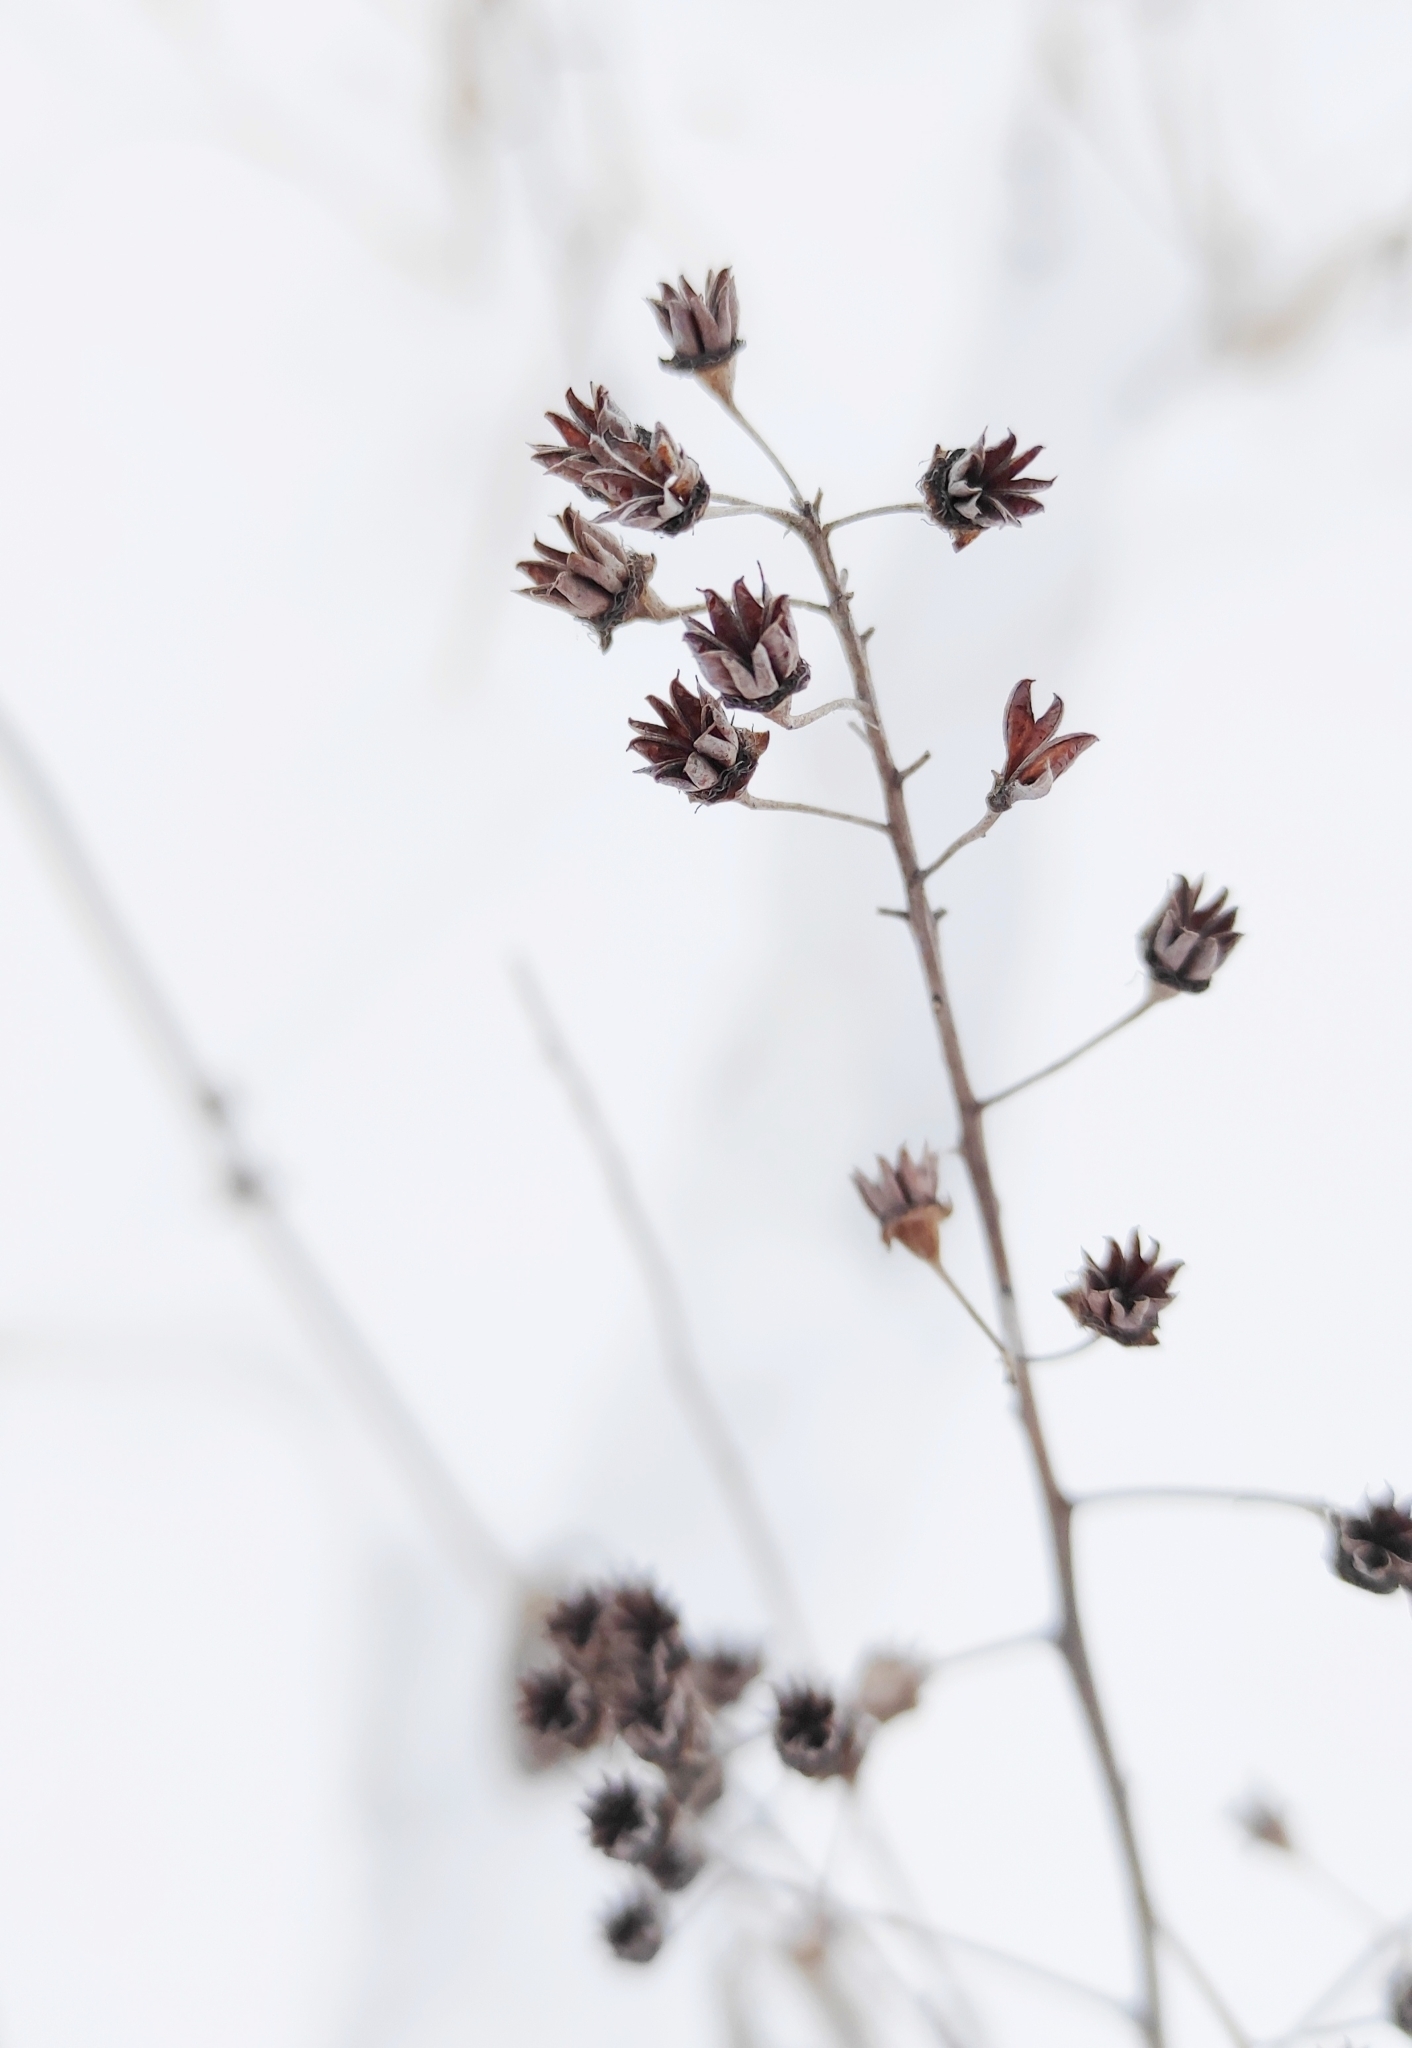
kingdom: Plantae
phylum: Tracheophyta
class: Magnoliopsida
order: Rosales
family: Rosaceae
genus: Spiraea
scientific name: Spiraea salicifolia
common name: Bridewort
